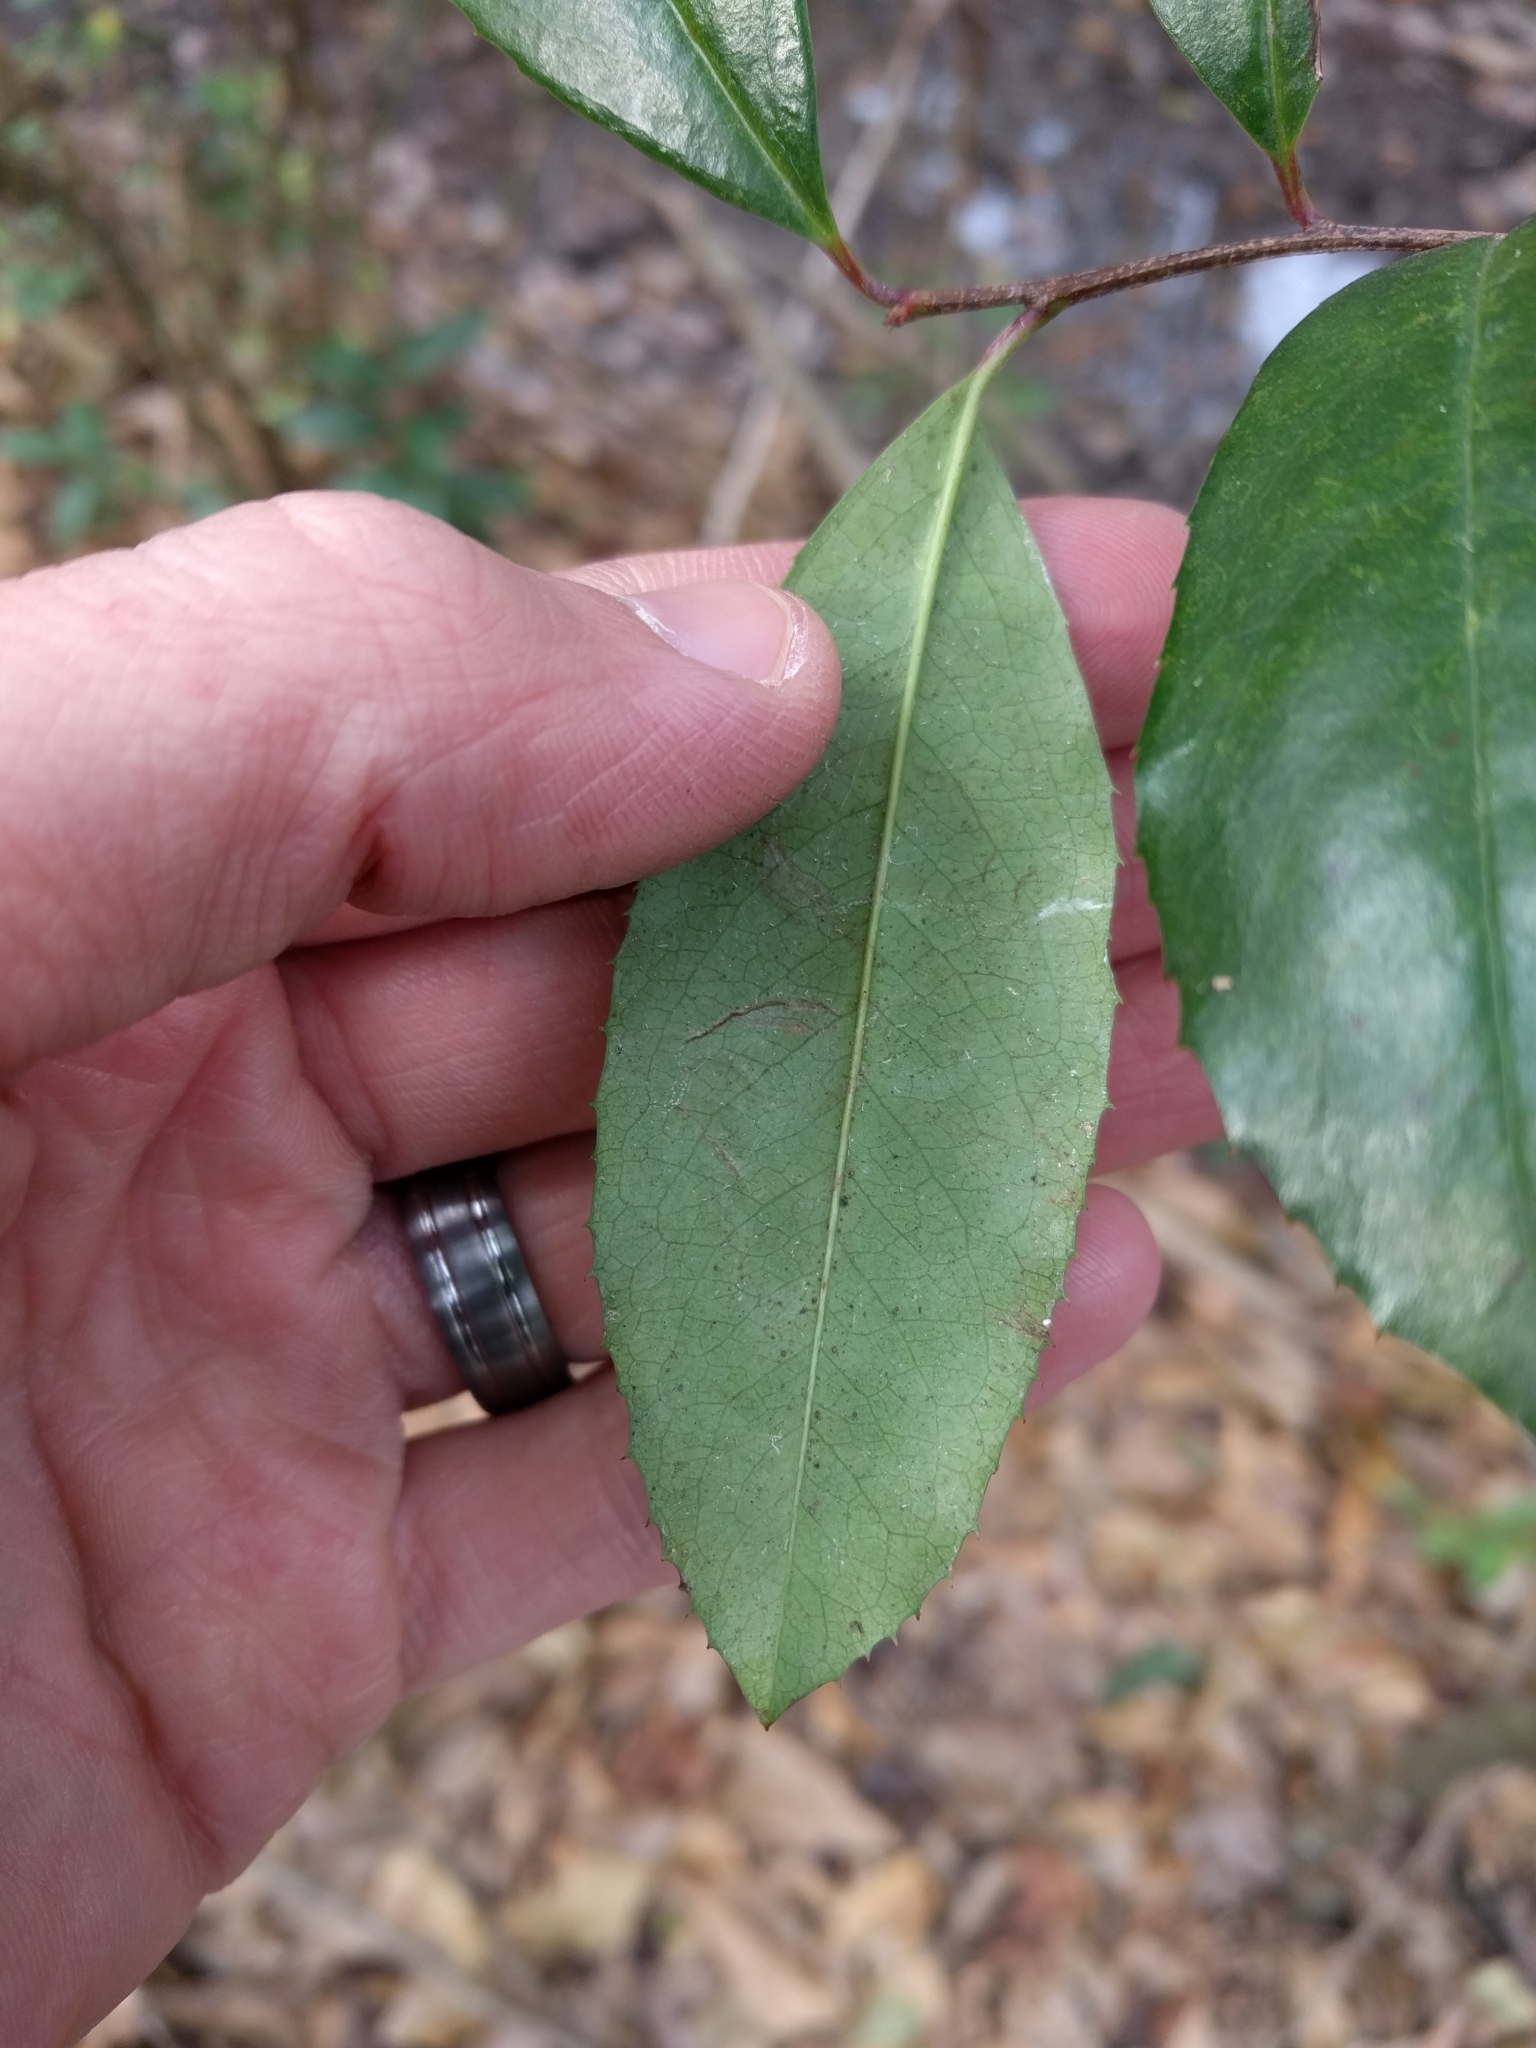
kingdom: Plantae
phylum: Tracheophyta
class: Magnoliopsida
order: Rosales
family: Rosaceae
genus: Prunus
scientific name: Prunus caroliniana
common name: Carolina laurel cherry
